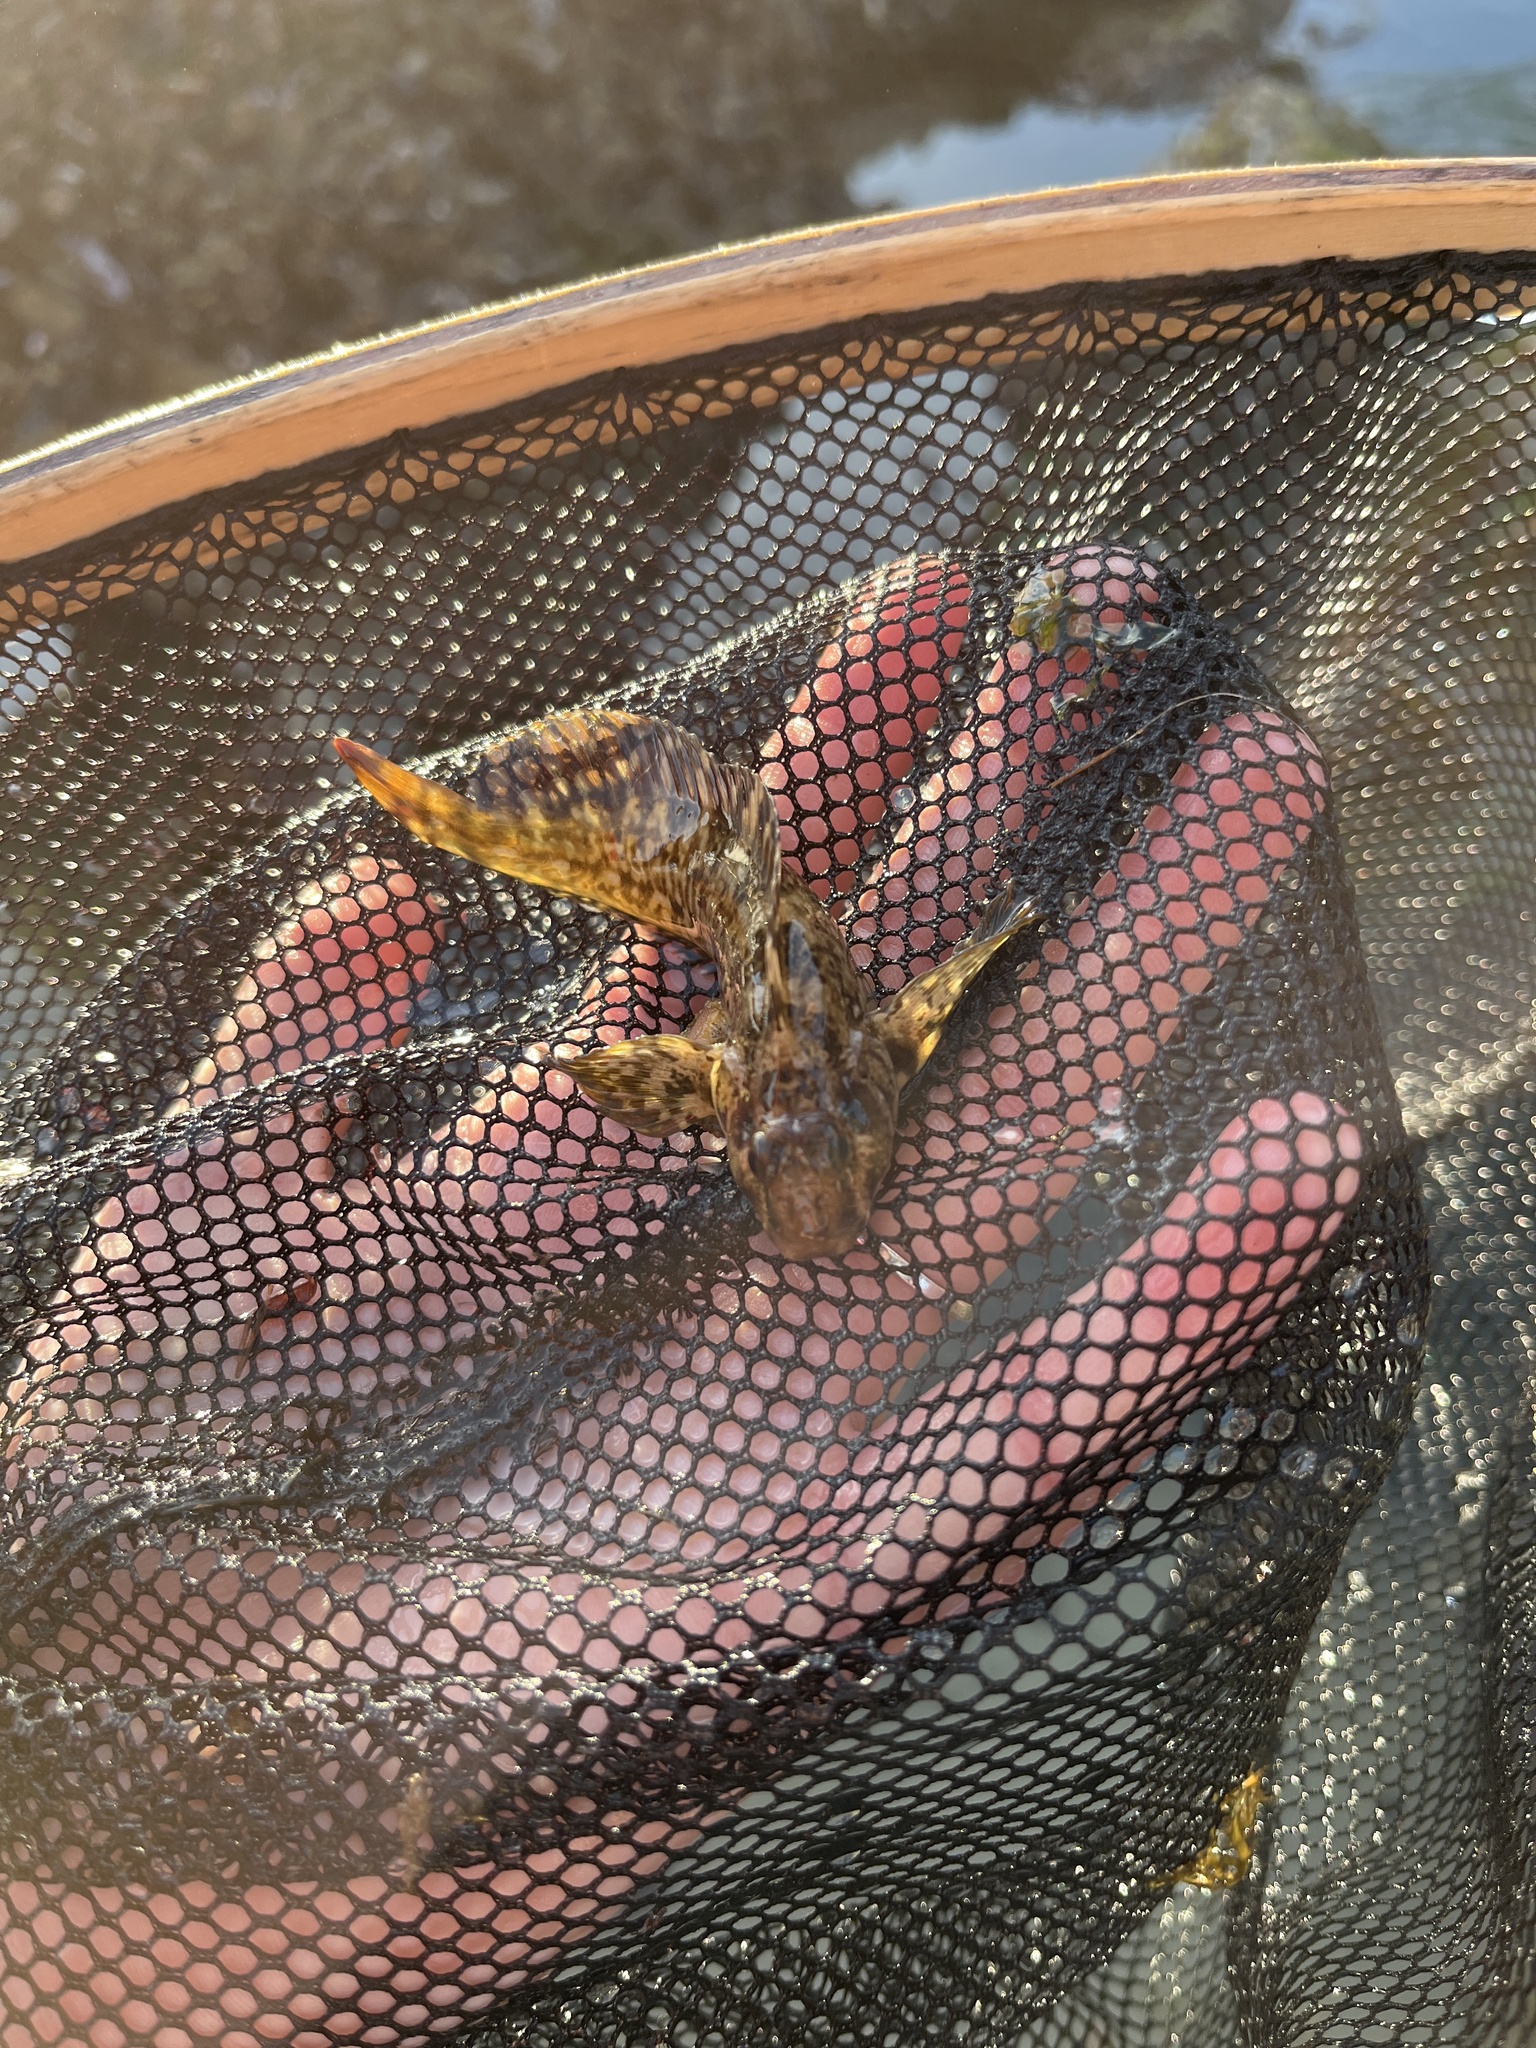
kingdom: Animalia
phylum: Chordata
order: Perciformes
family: Blenniidae
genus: Hypsoblennius
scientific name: Hypsoblennius gilberti
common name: Notchbrow blenny
